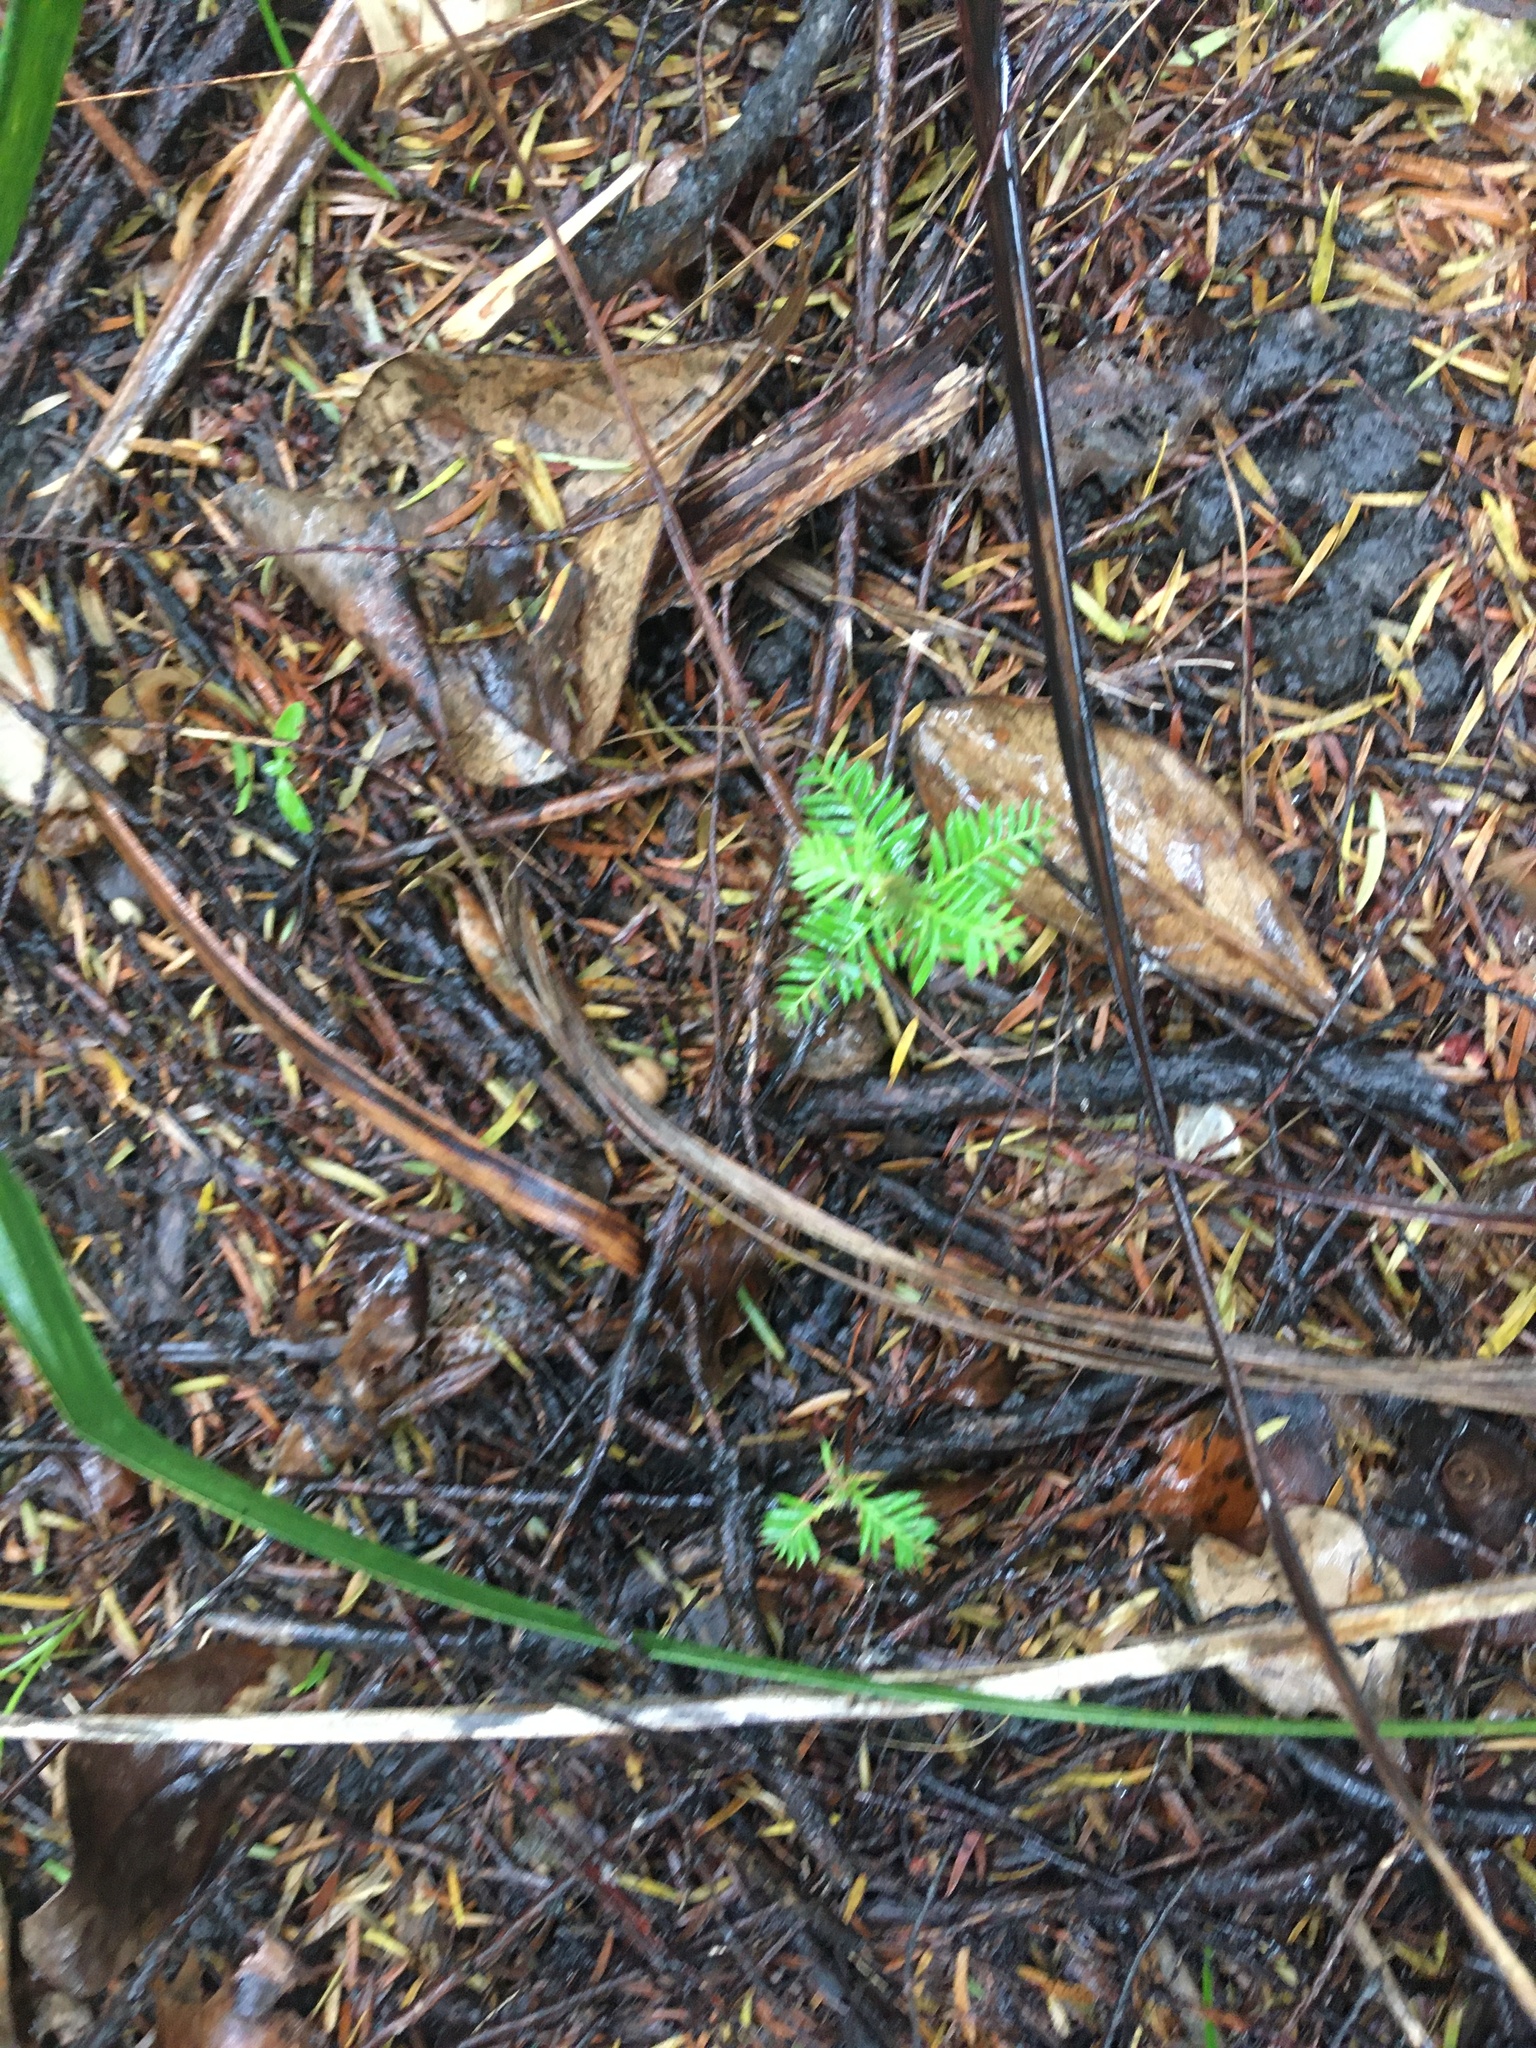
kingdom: Plantae
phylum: Tracheophyta
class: Magnoliopsida
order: Ericales
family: Primulaceae
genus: Myrsine
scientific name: Myrsine australis
